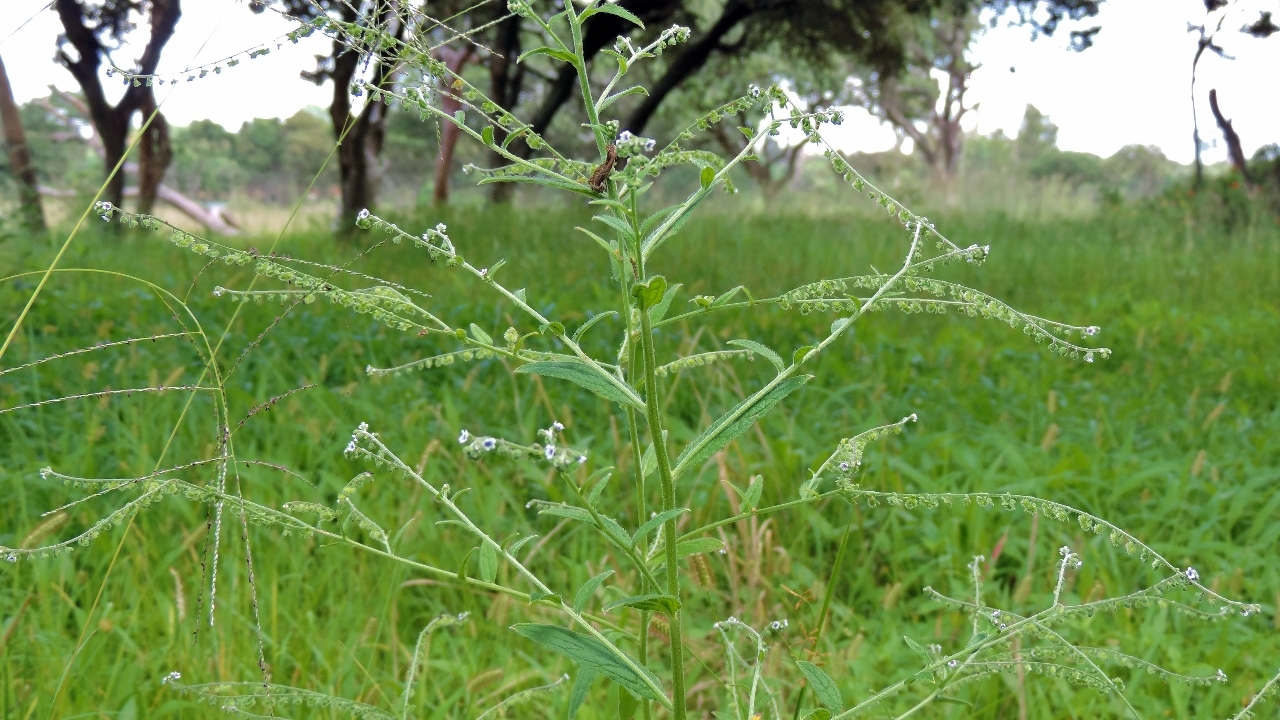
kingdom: Plantae
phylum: Tracheophyta
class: Magnoliopsida
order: Boraginales
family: Boraginaceae
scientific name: Boraginaceae
